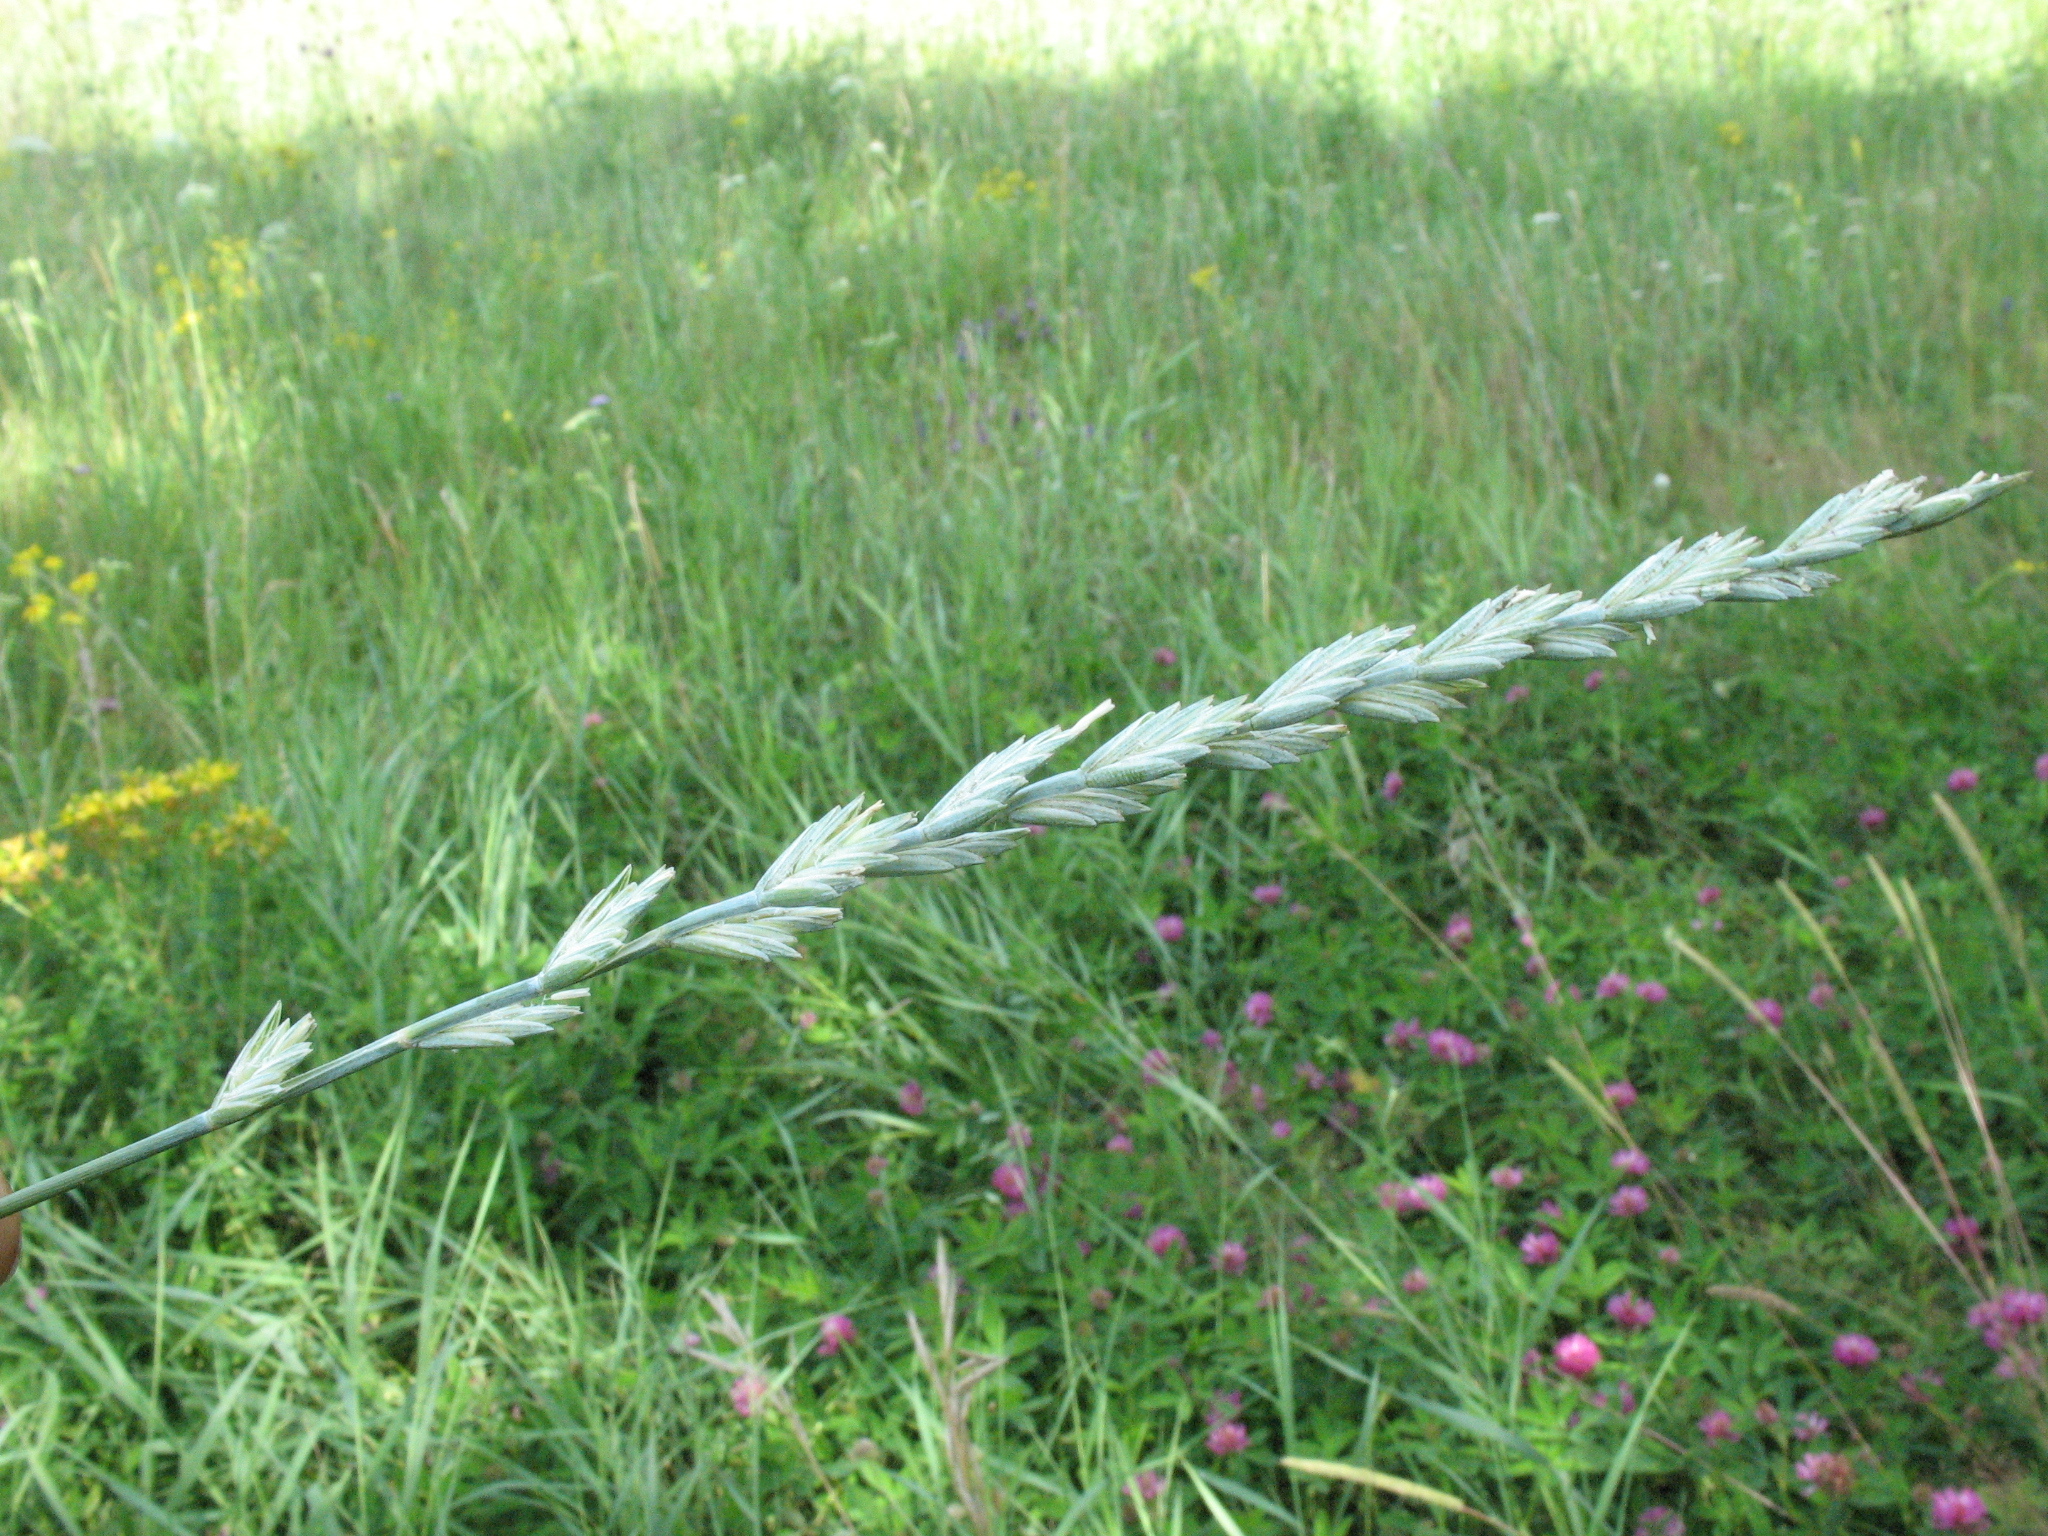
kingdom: Plantae
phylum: Tracheophyta
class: Liliopsida
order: Poales
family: Poaceae
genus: Thinopyrum
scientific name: Thinopyrum intermedium
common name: Intermediate wheatgrass
